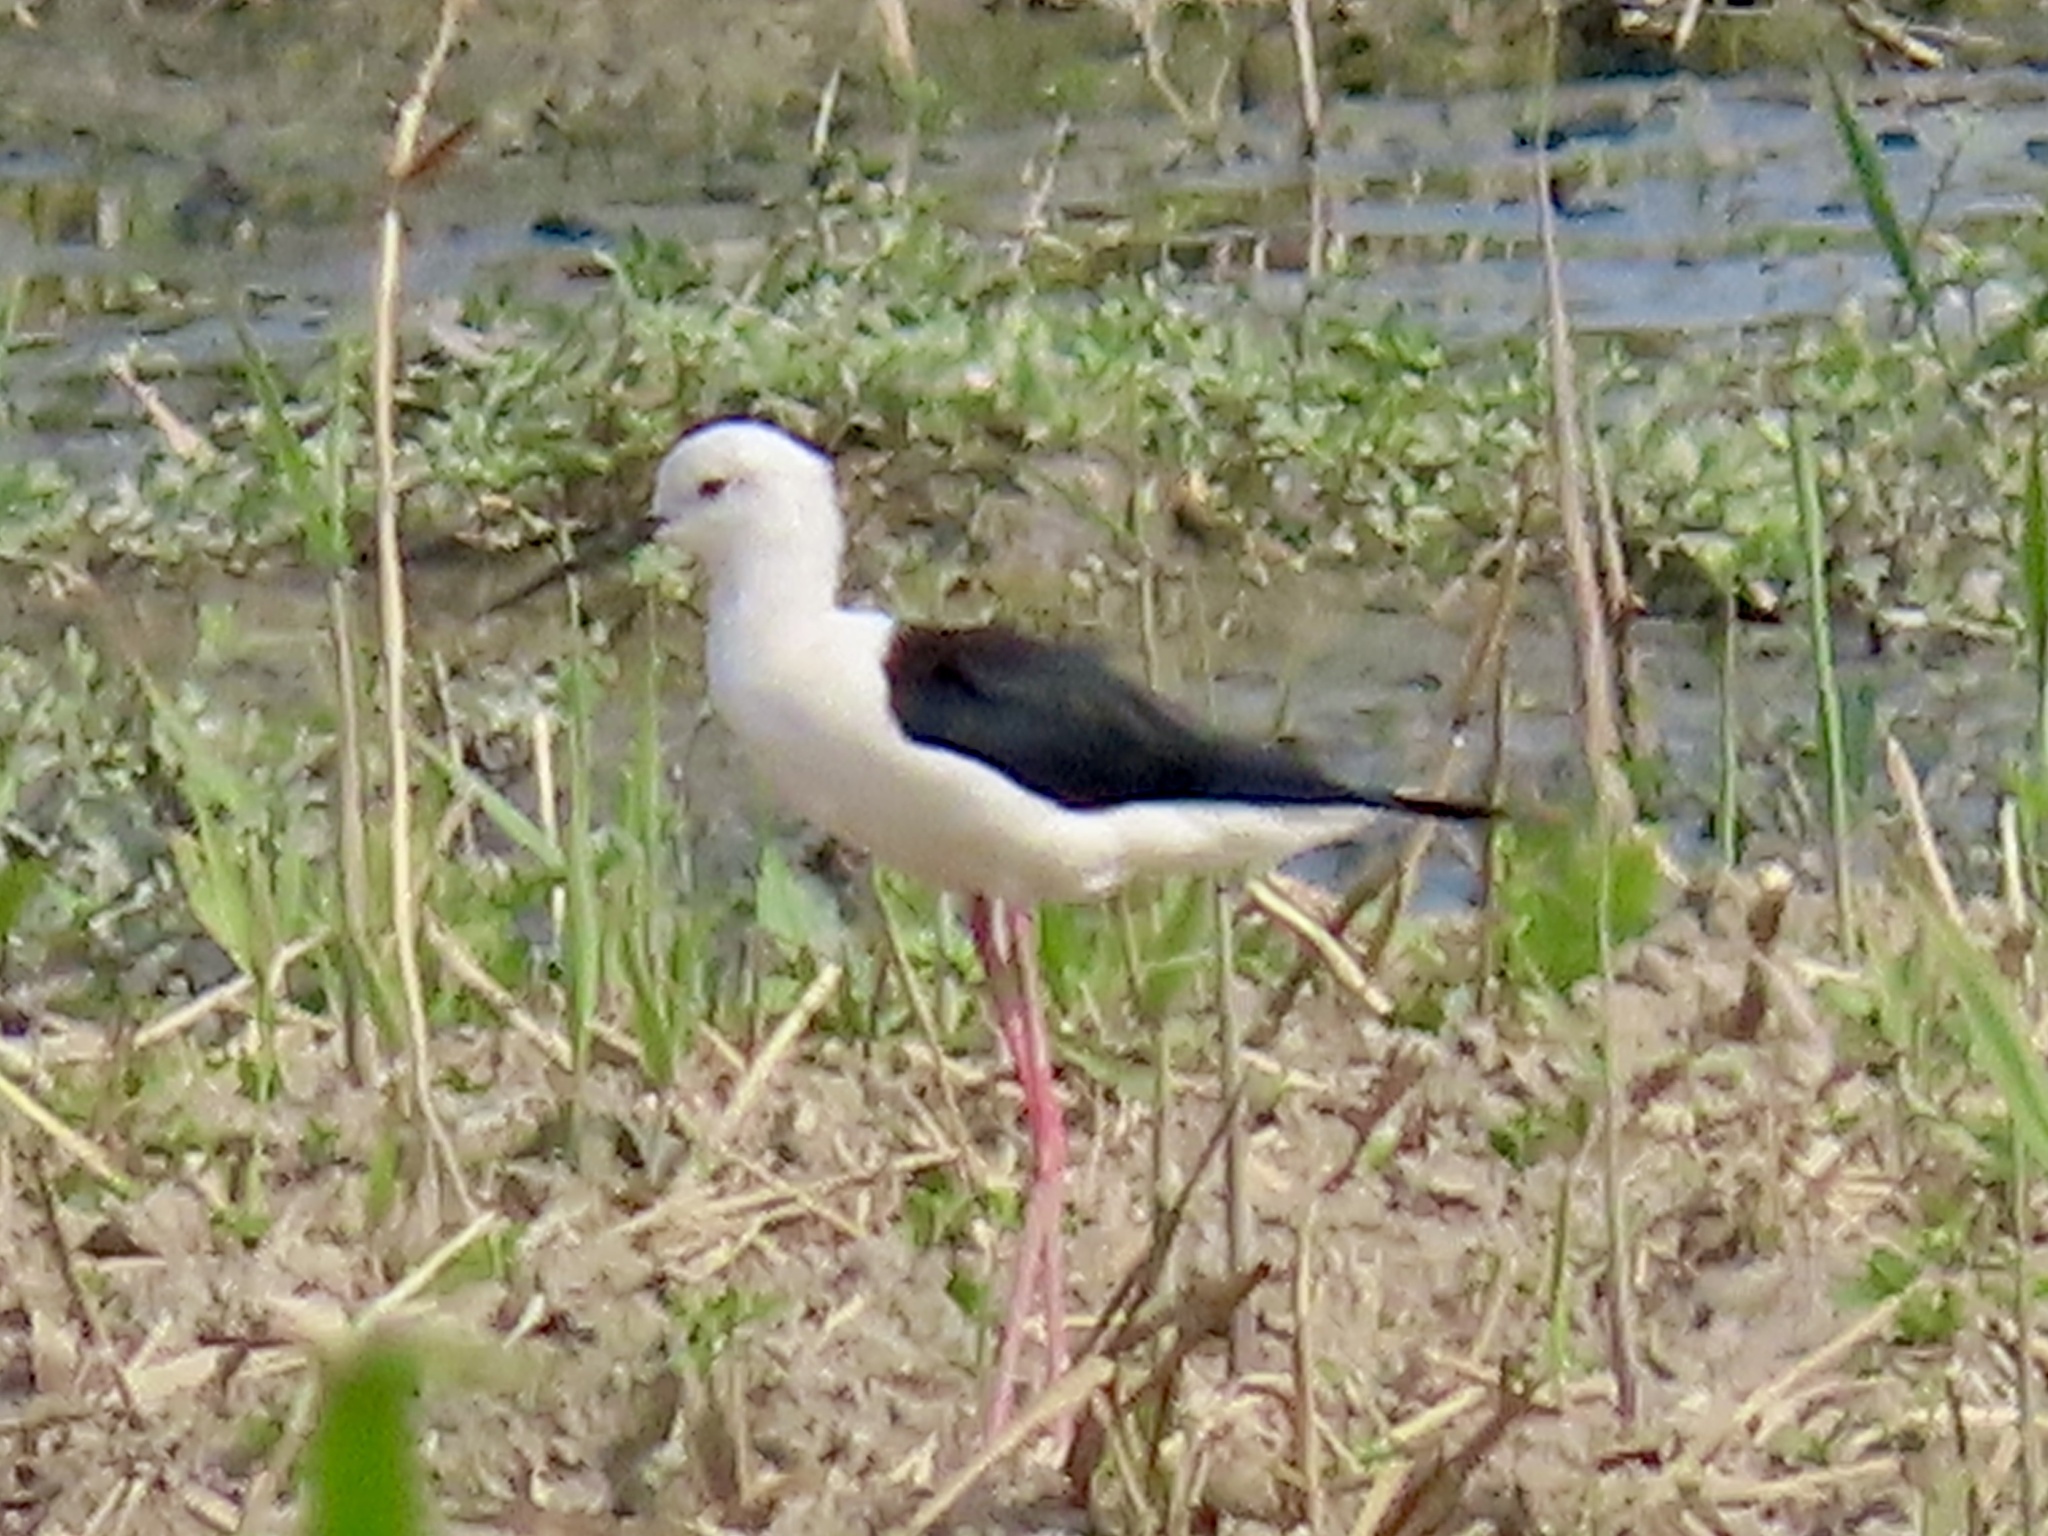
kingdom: Animalia
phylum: Chordata
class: Aves
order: Charadriiformes
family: Recurvirostridae
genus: Himantopus
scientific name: Himantopus himantopus
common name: Black-winged stilt
